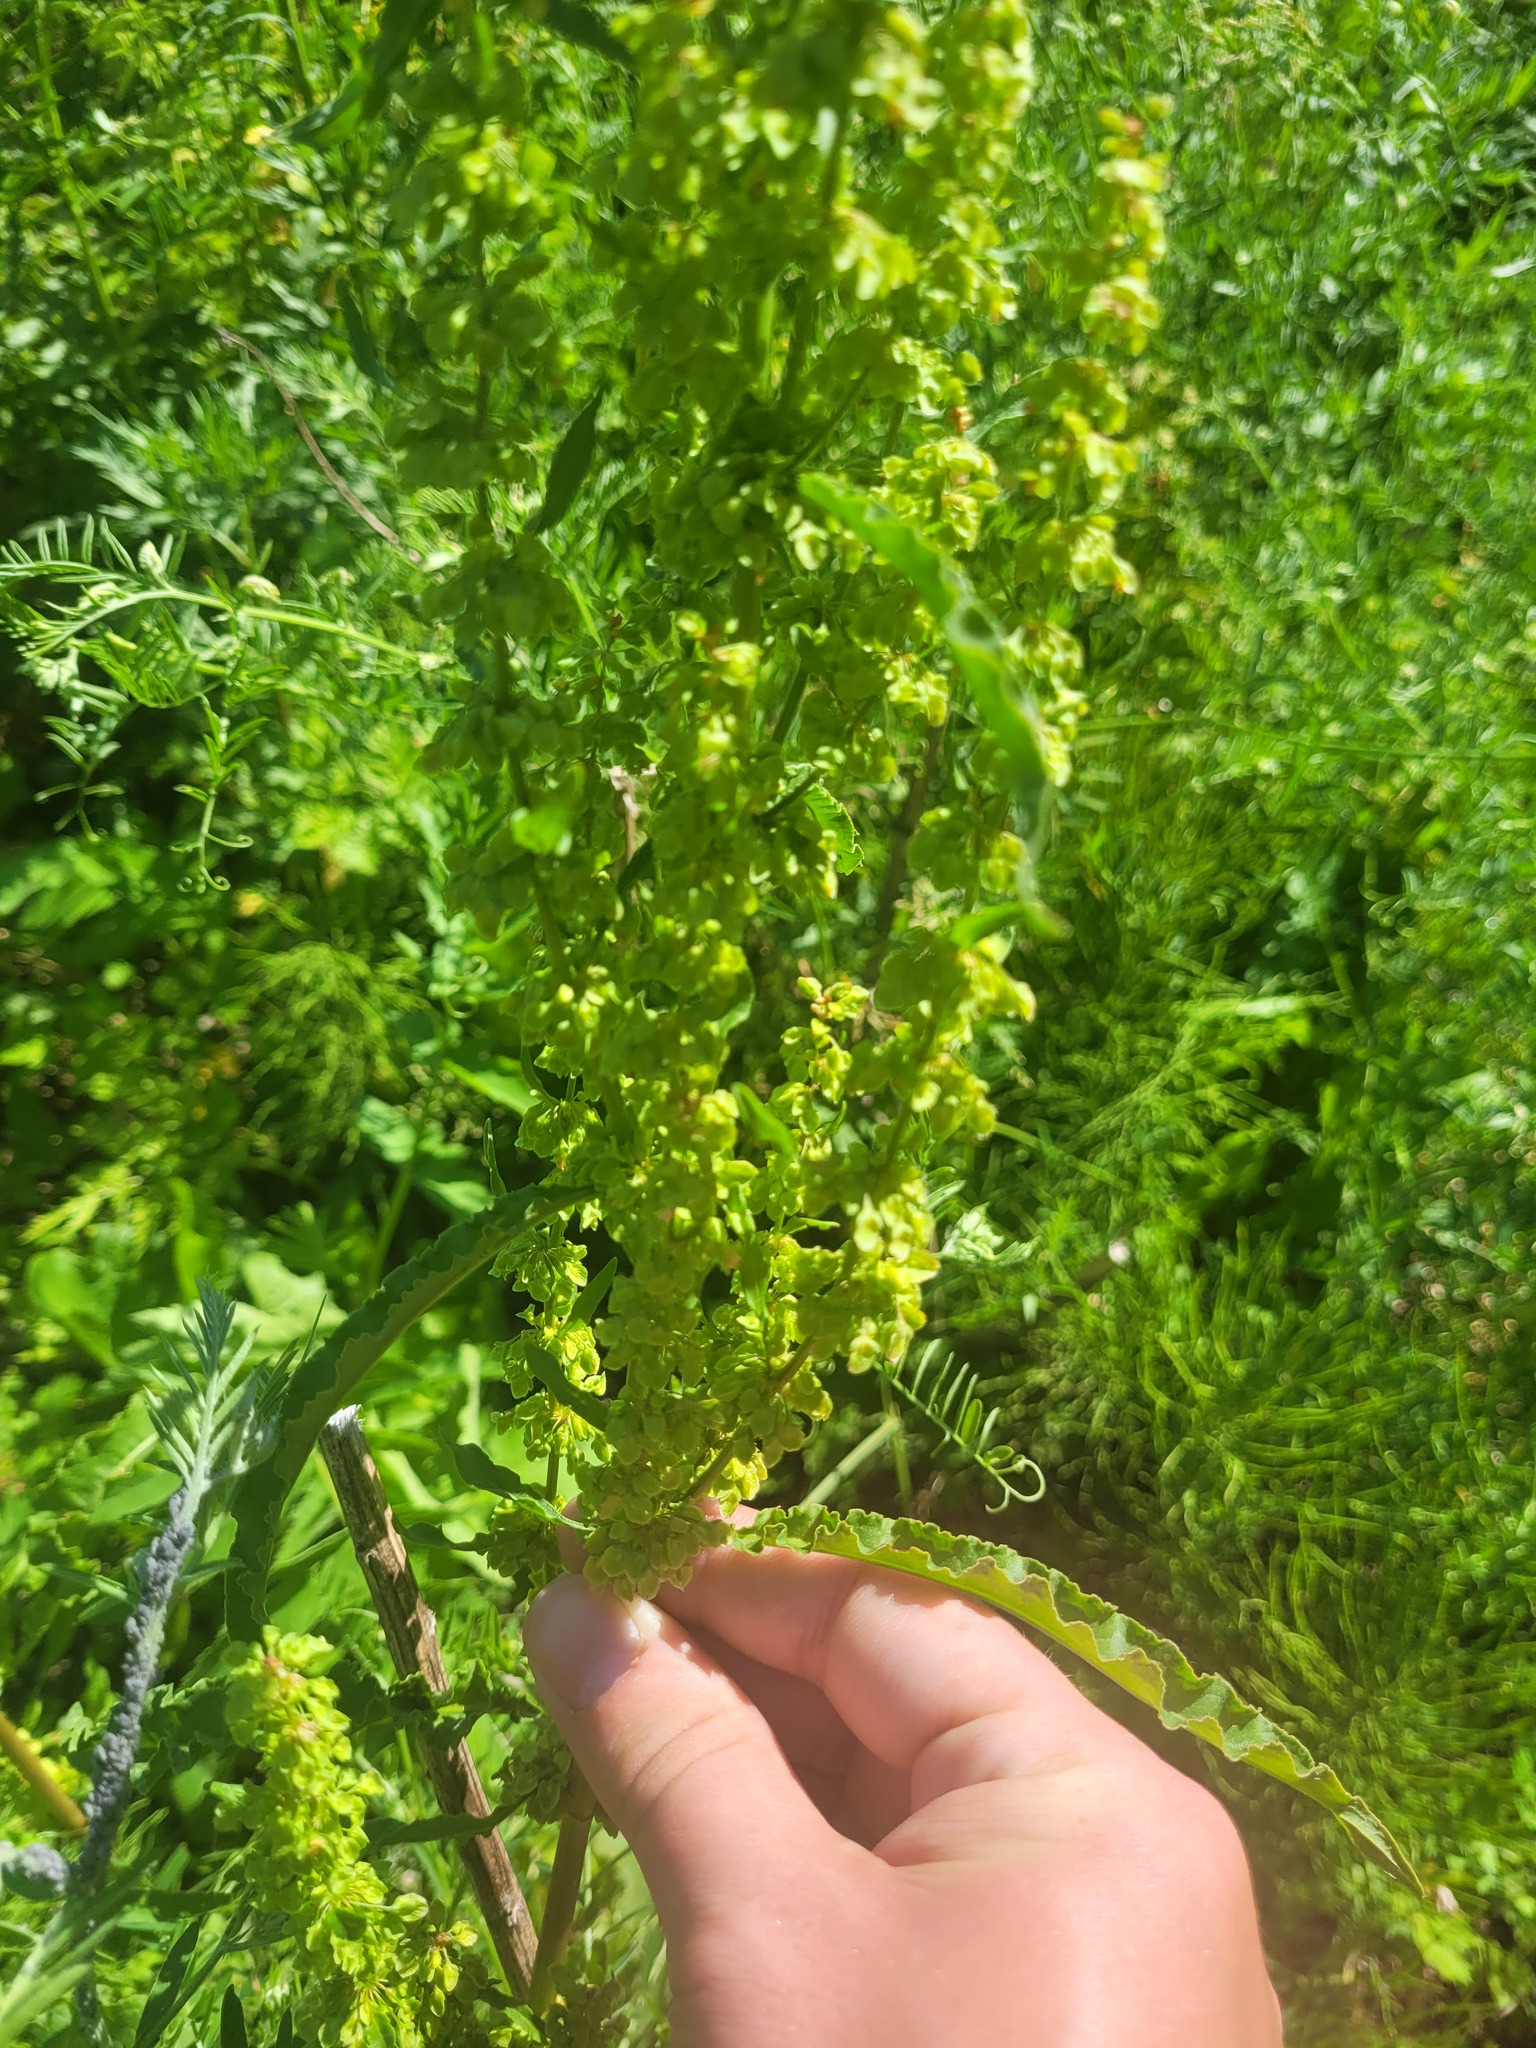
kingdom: Plantae
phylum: Tracheophyta
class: Magnoliopsida
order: Caryophyllales
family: Polygonaceae
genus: Rumex
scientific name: Rumex crispus
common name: Curled dock
